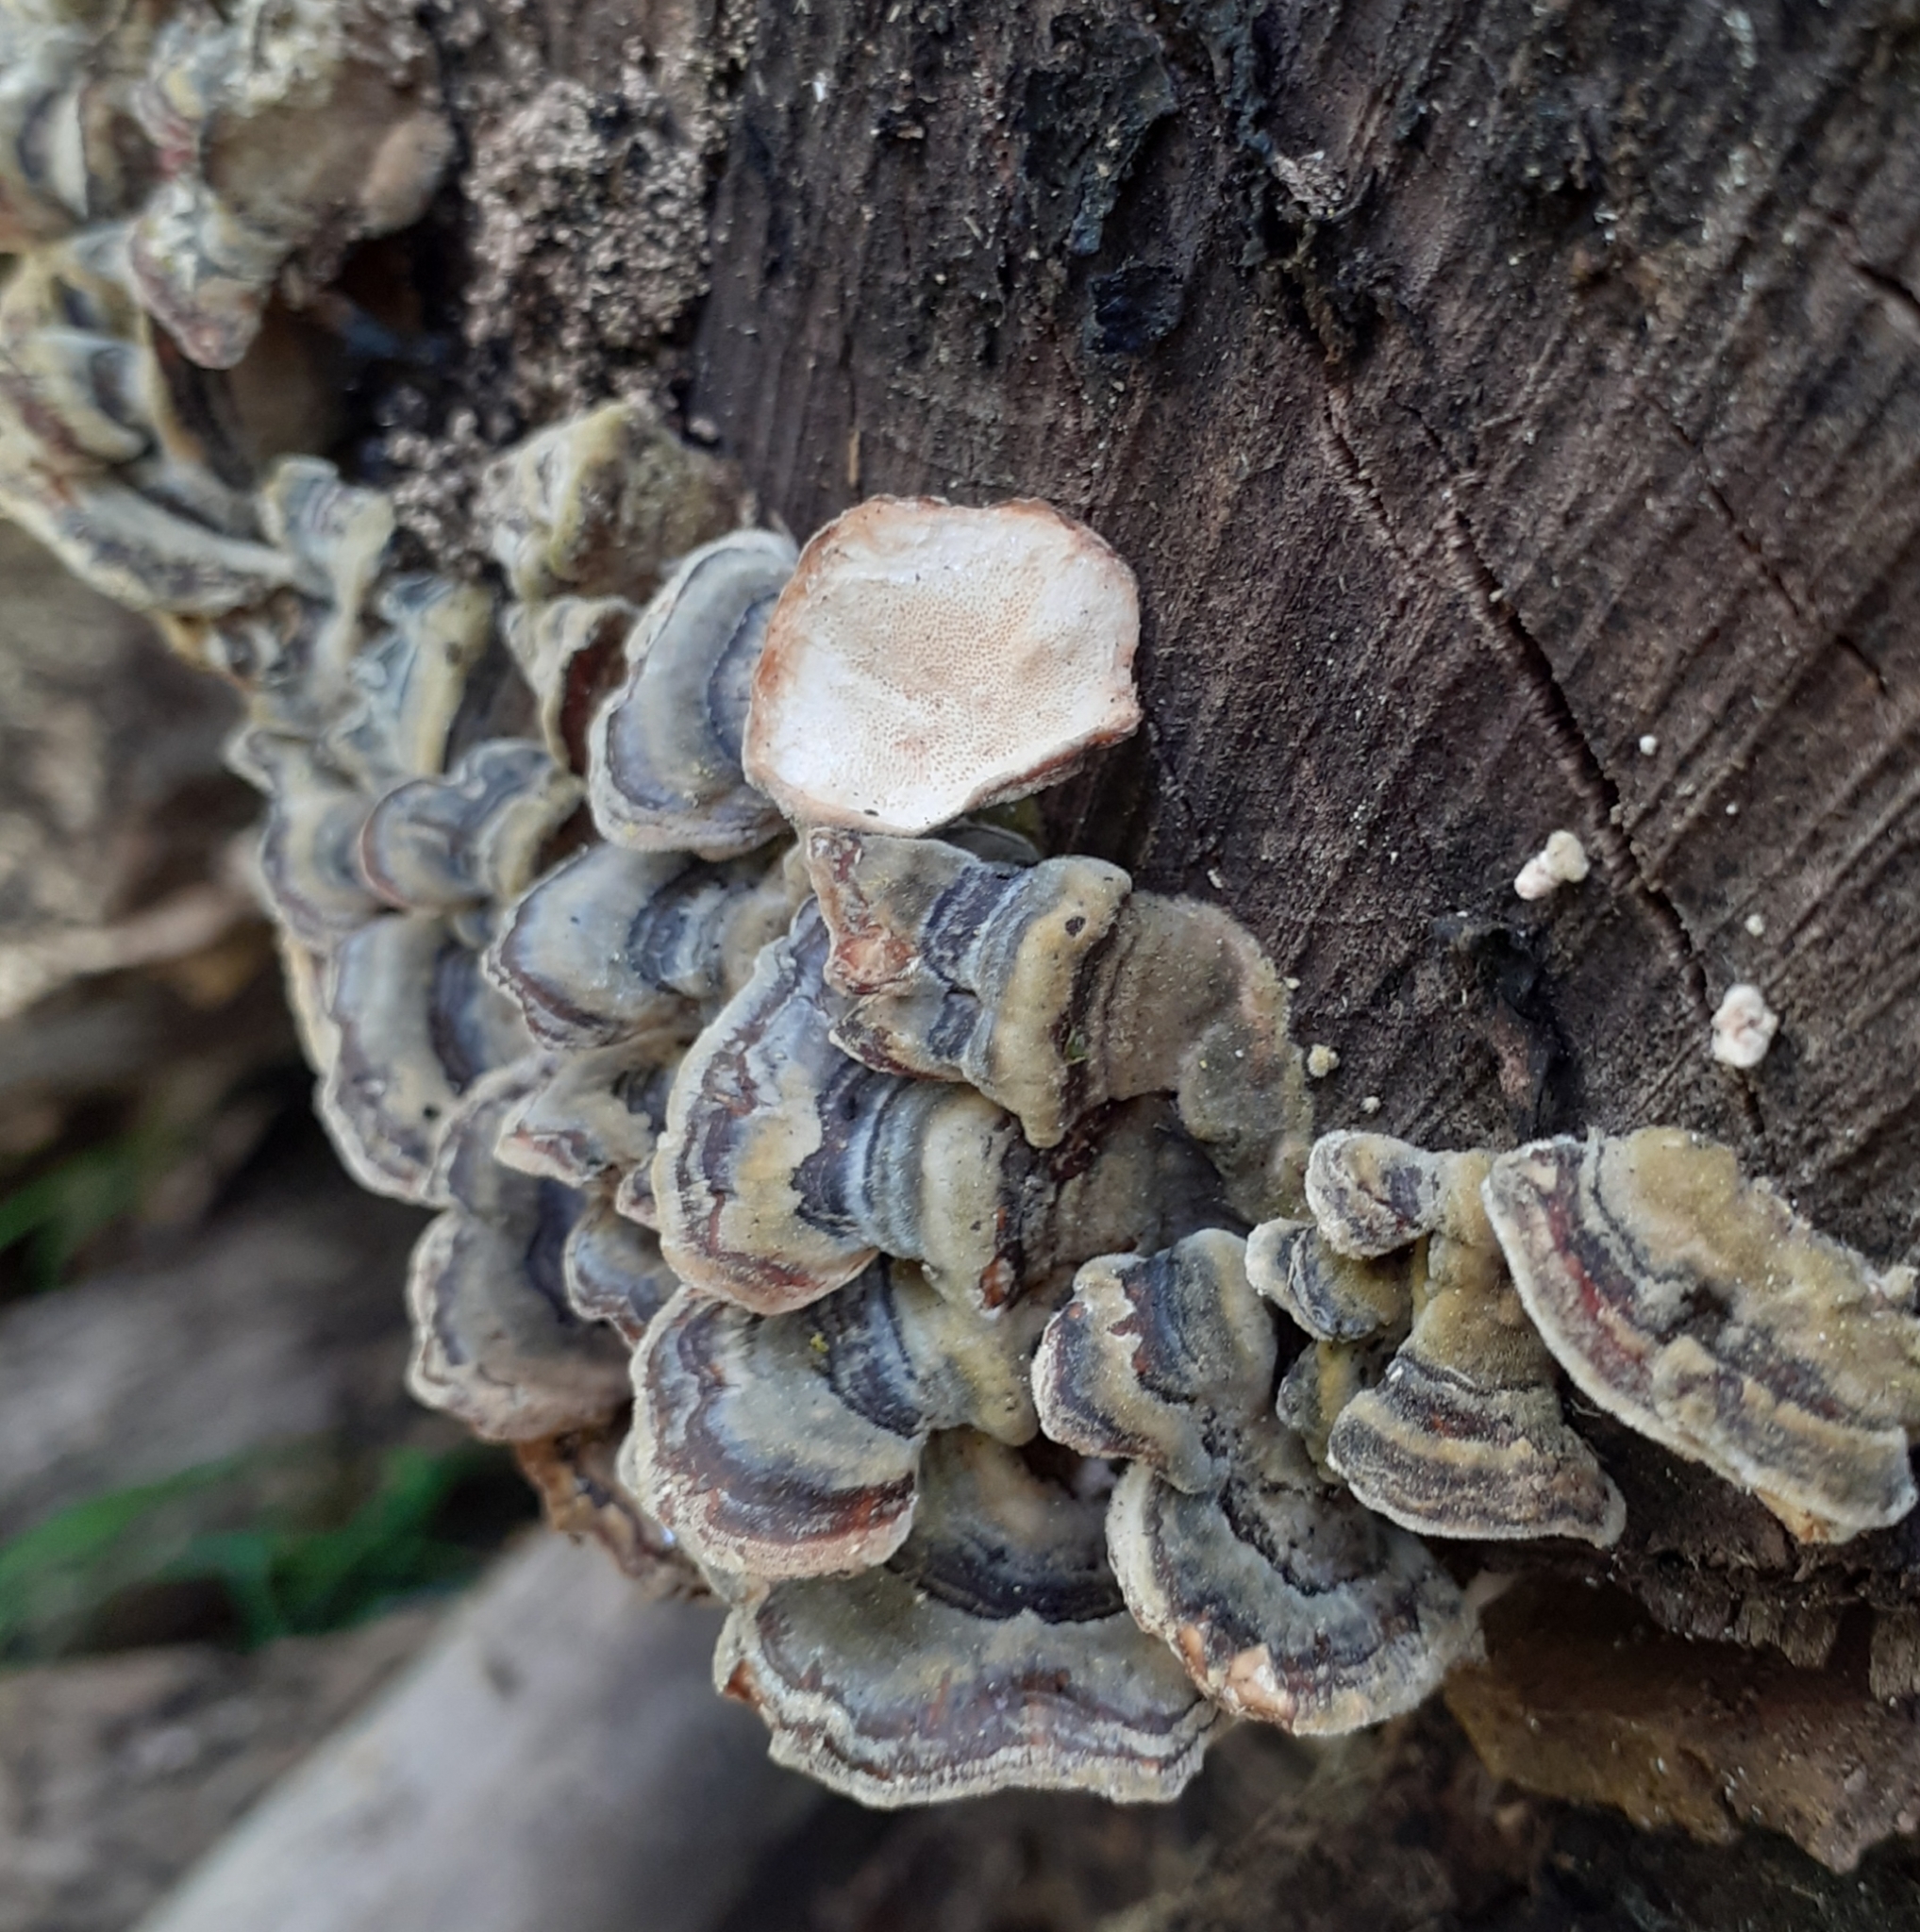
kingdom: Fungi
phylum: Basidiomycota
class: Agaricomycetes
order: Polyporales
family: Polyporaceae
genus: Trametes
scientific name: Trametes versicolor
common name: Turkeytail
